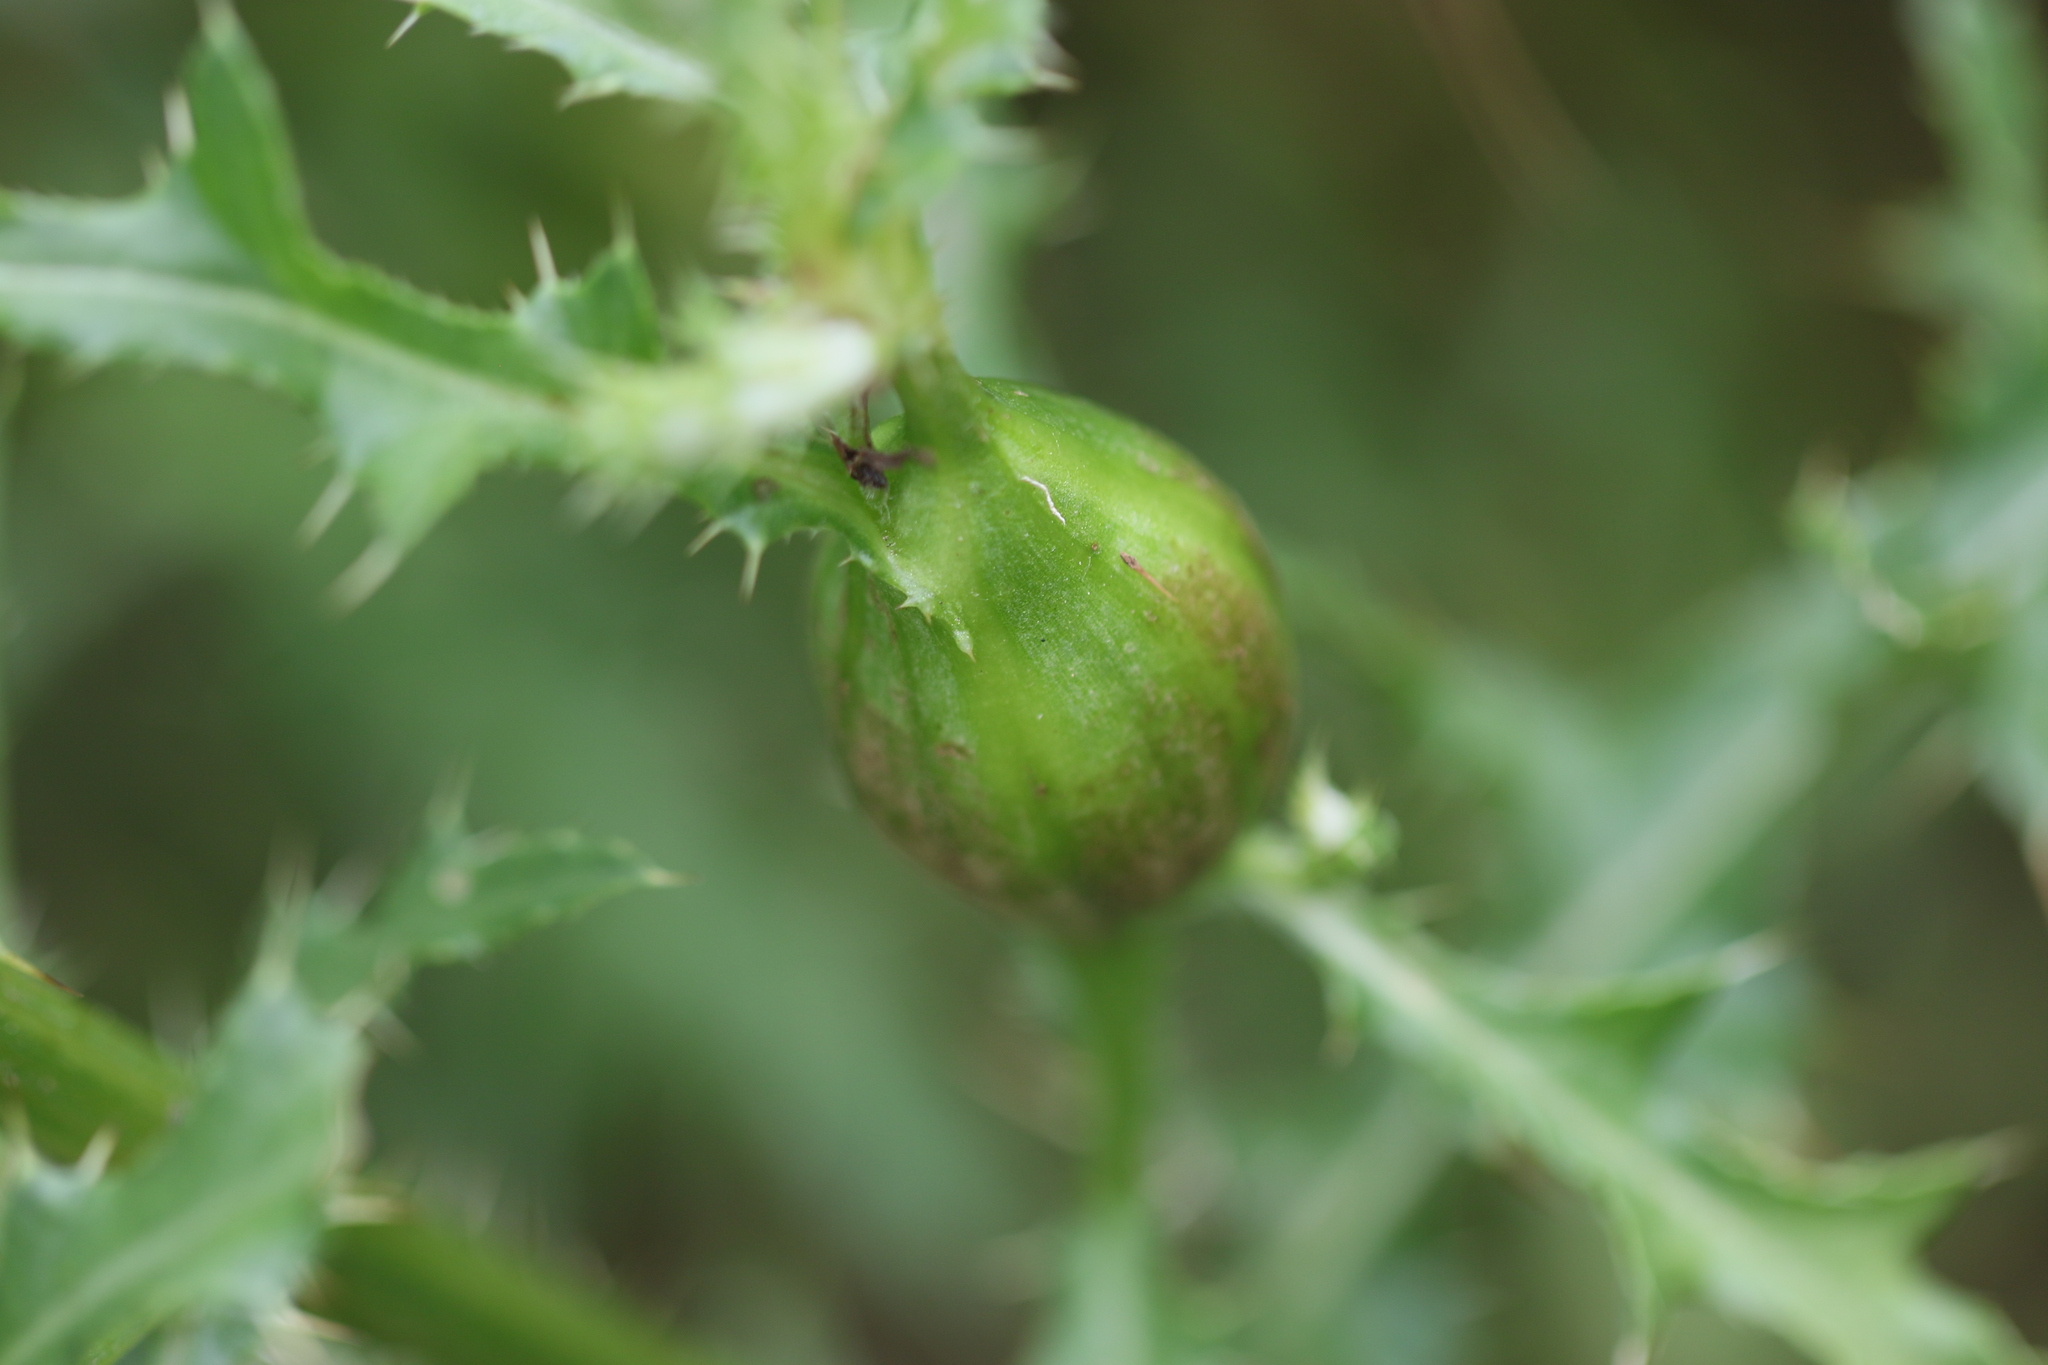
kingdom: Animalia
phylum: Arthropoda
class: Insecta
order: Diptera
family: Tephritidae
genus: Urophora
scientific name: Urophora cardui
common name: Fruit fly
